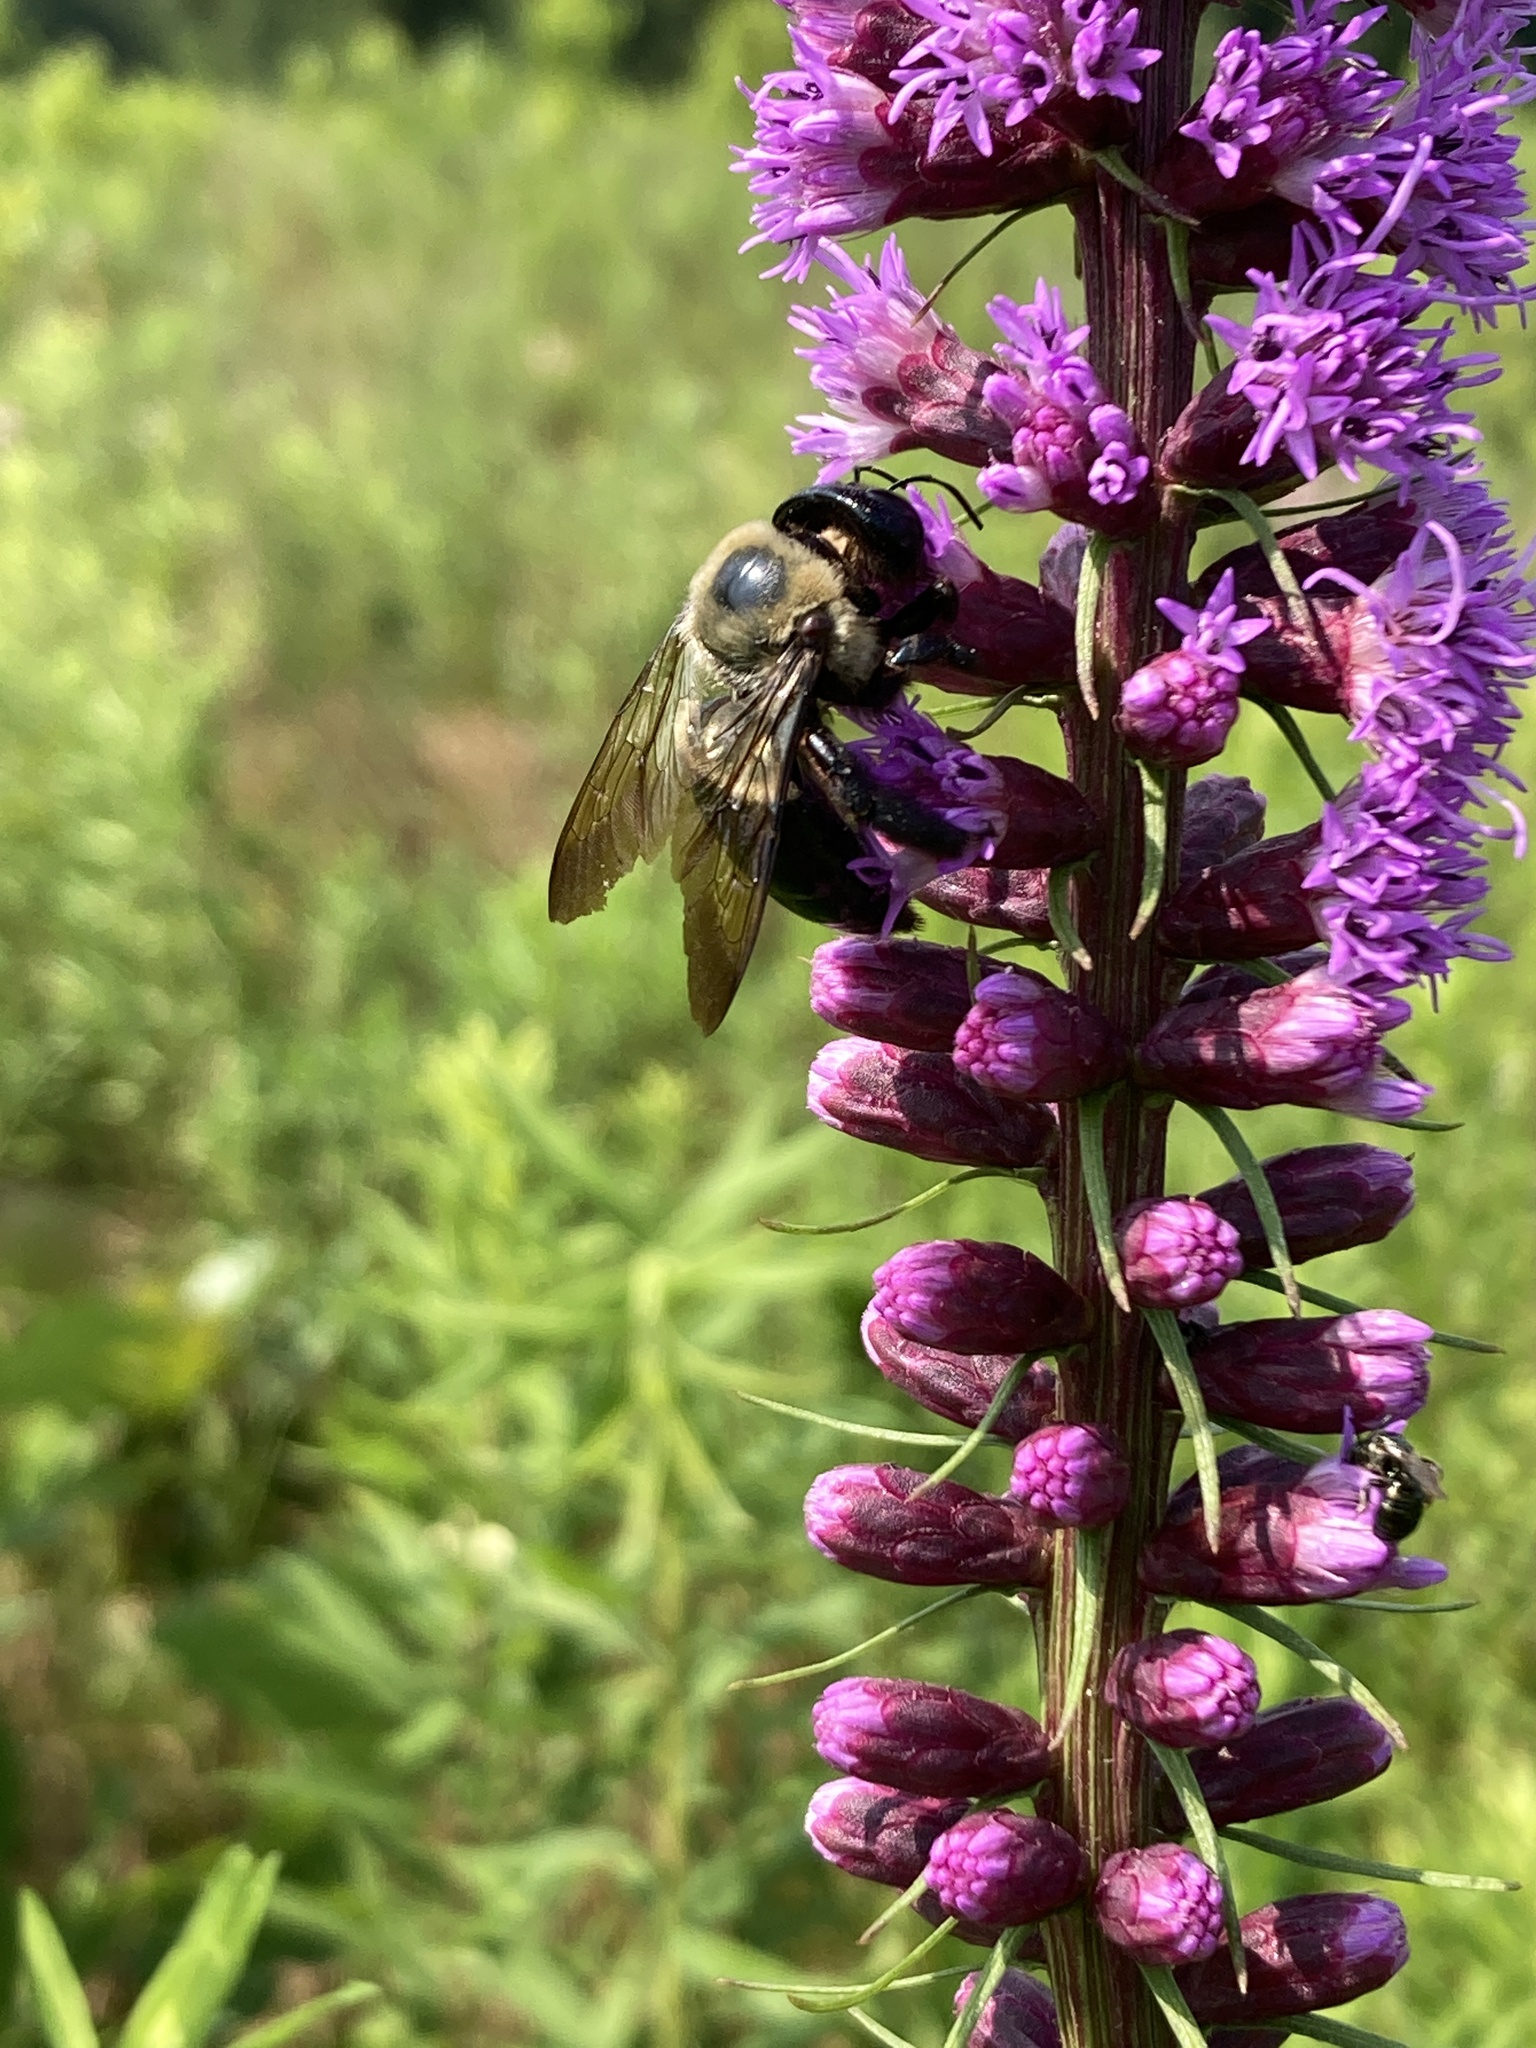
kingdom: Animalia
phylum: Arthropoda
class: Insecta
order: Hymenoptera
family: Apidae
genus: Xylocopa
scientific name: Xylocopa virginica
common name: Carpenter bee
